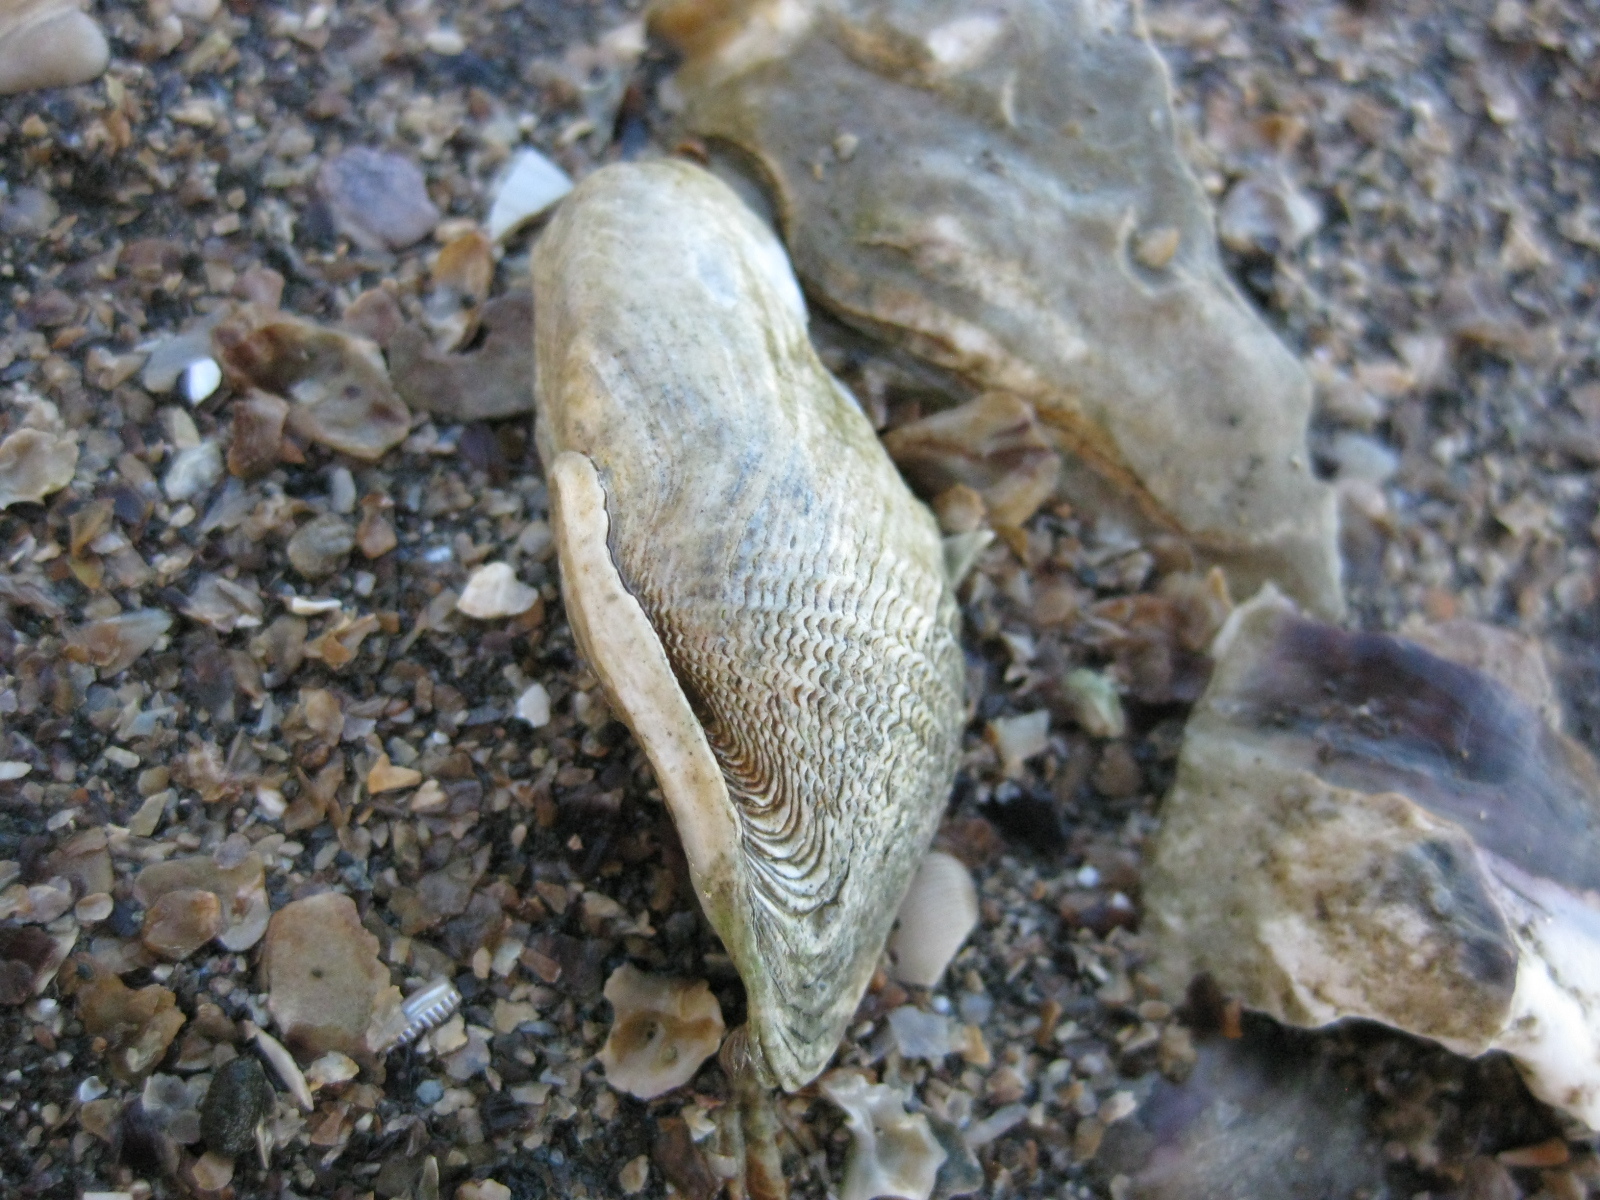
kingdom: Animalia
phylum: Mollusca
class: Bivalvia
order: Myida
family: Pholadidae
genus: Barnea
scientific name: Barnea similis
